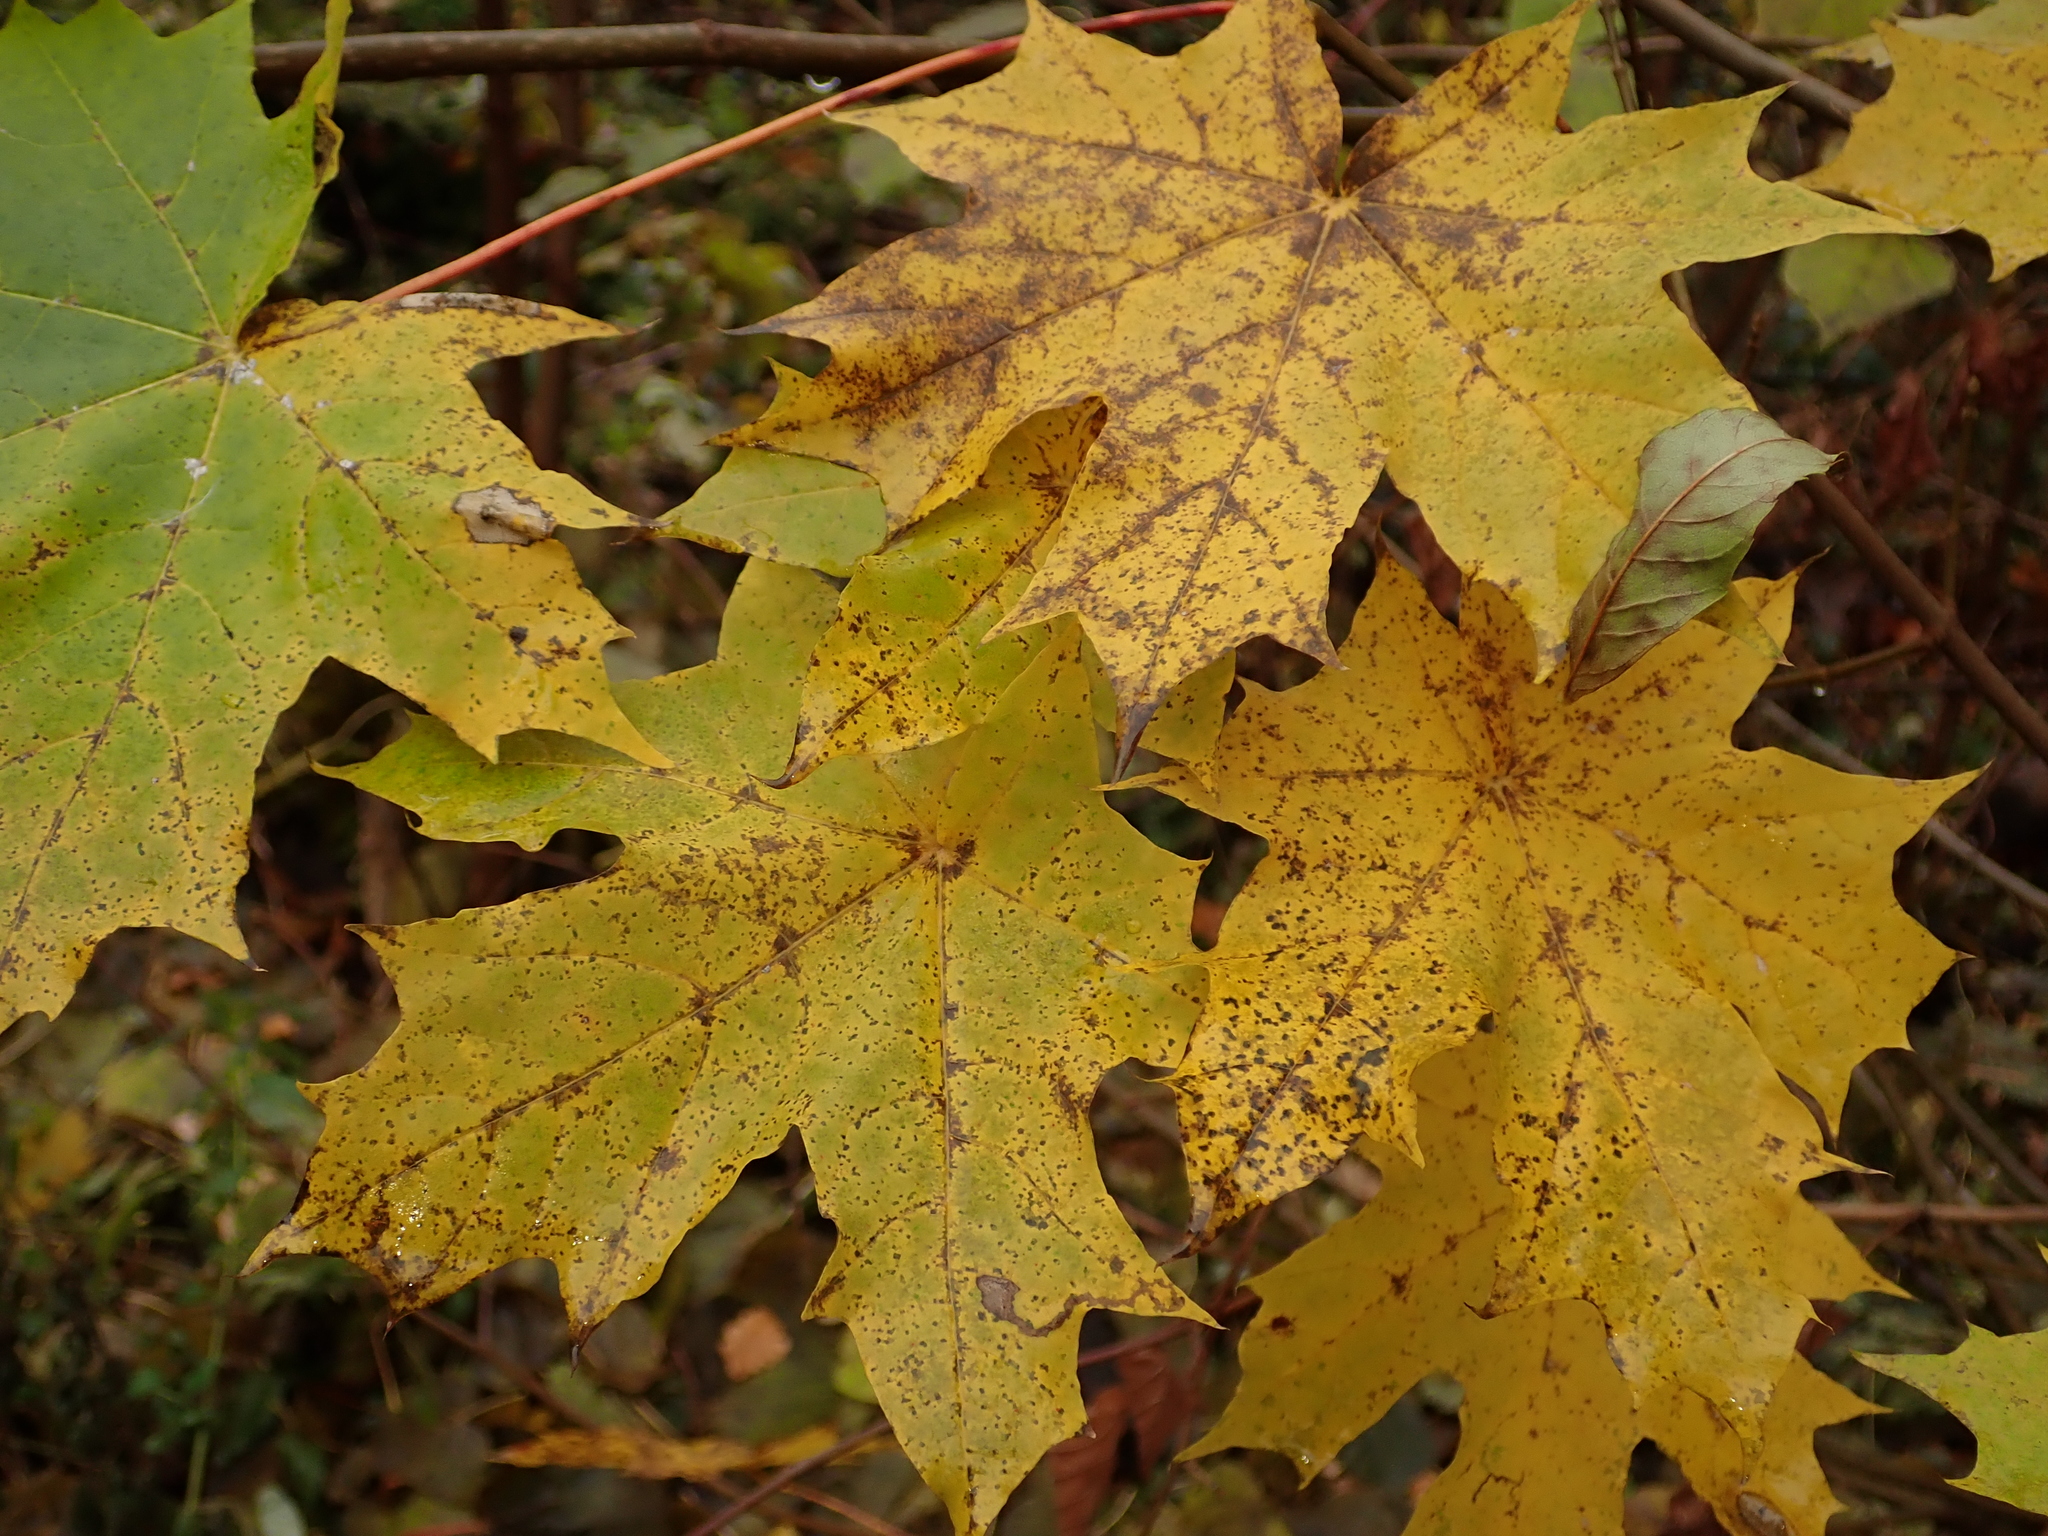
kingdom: Plantae
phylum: Tracheophyta
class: Magnoliopsida
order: Sapindales
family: Sapindaceae
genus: Acer
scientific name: Acer platanoides
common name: Norway maple
